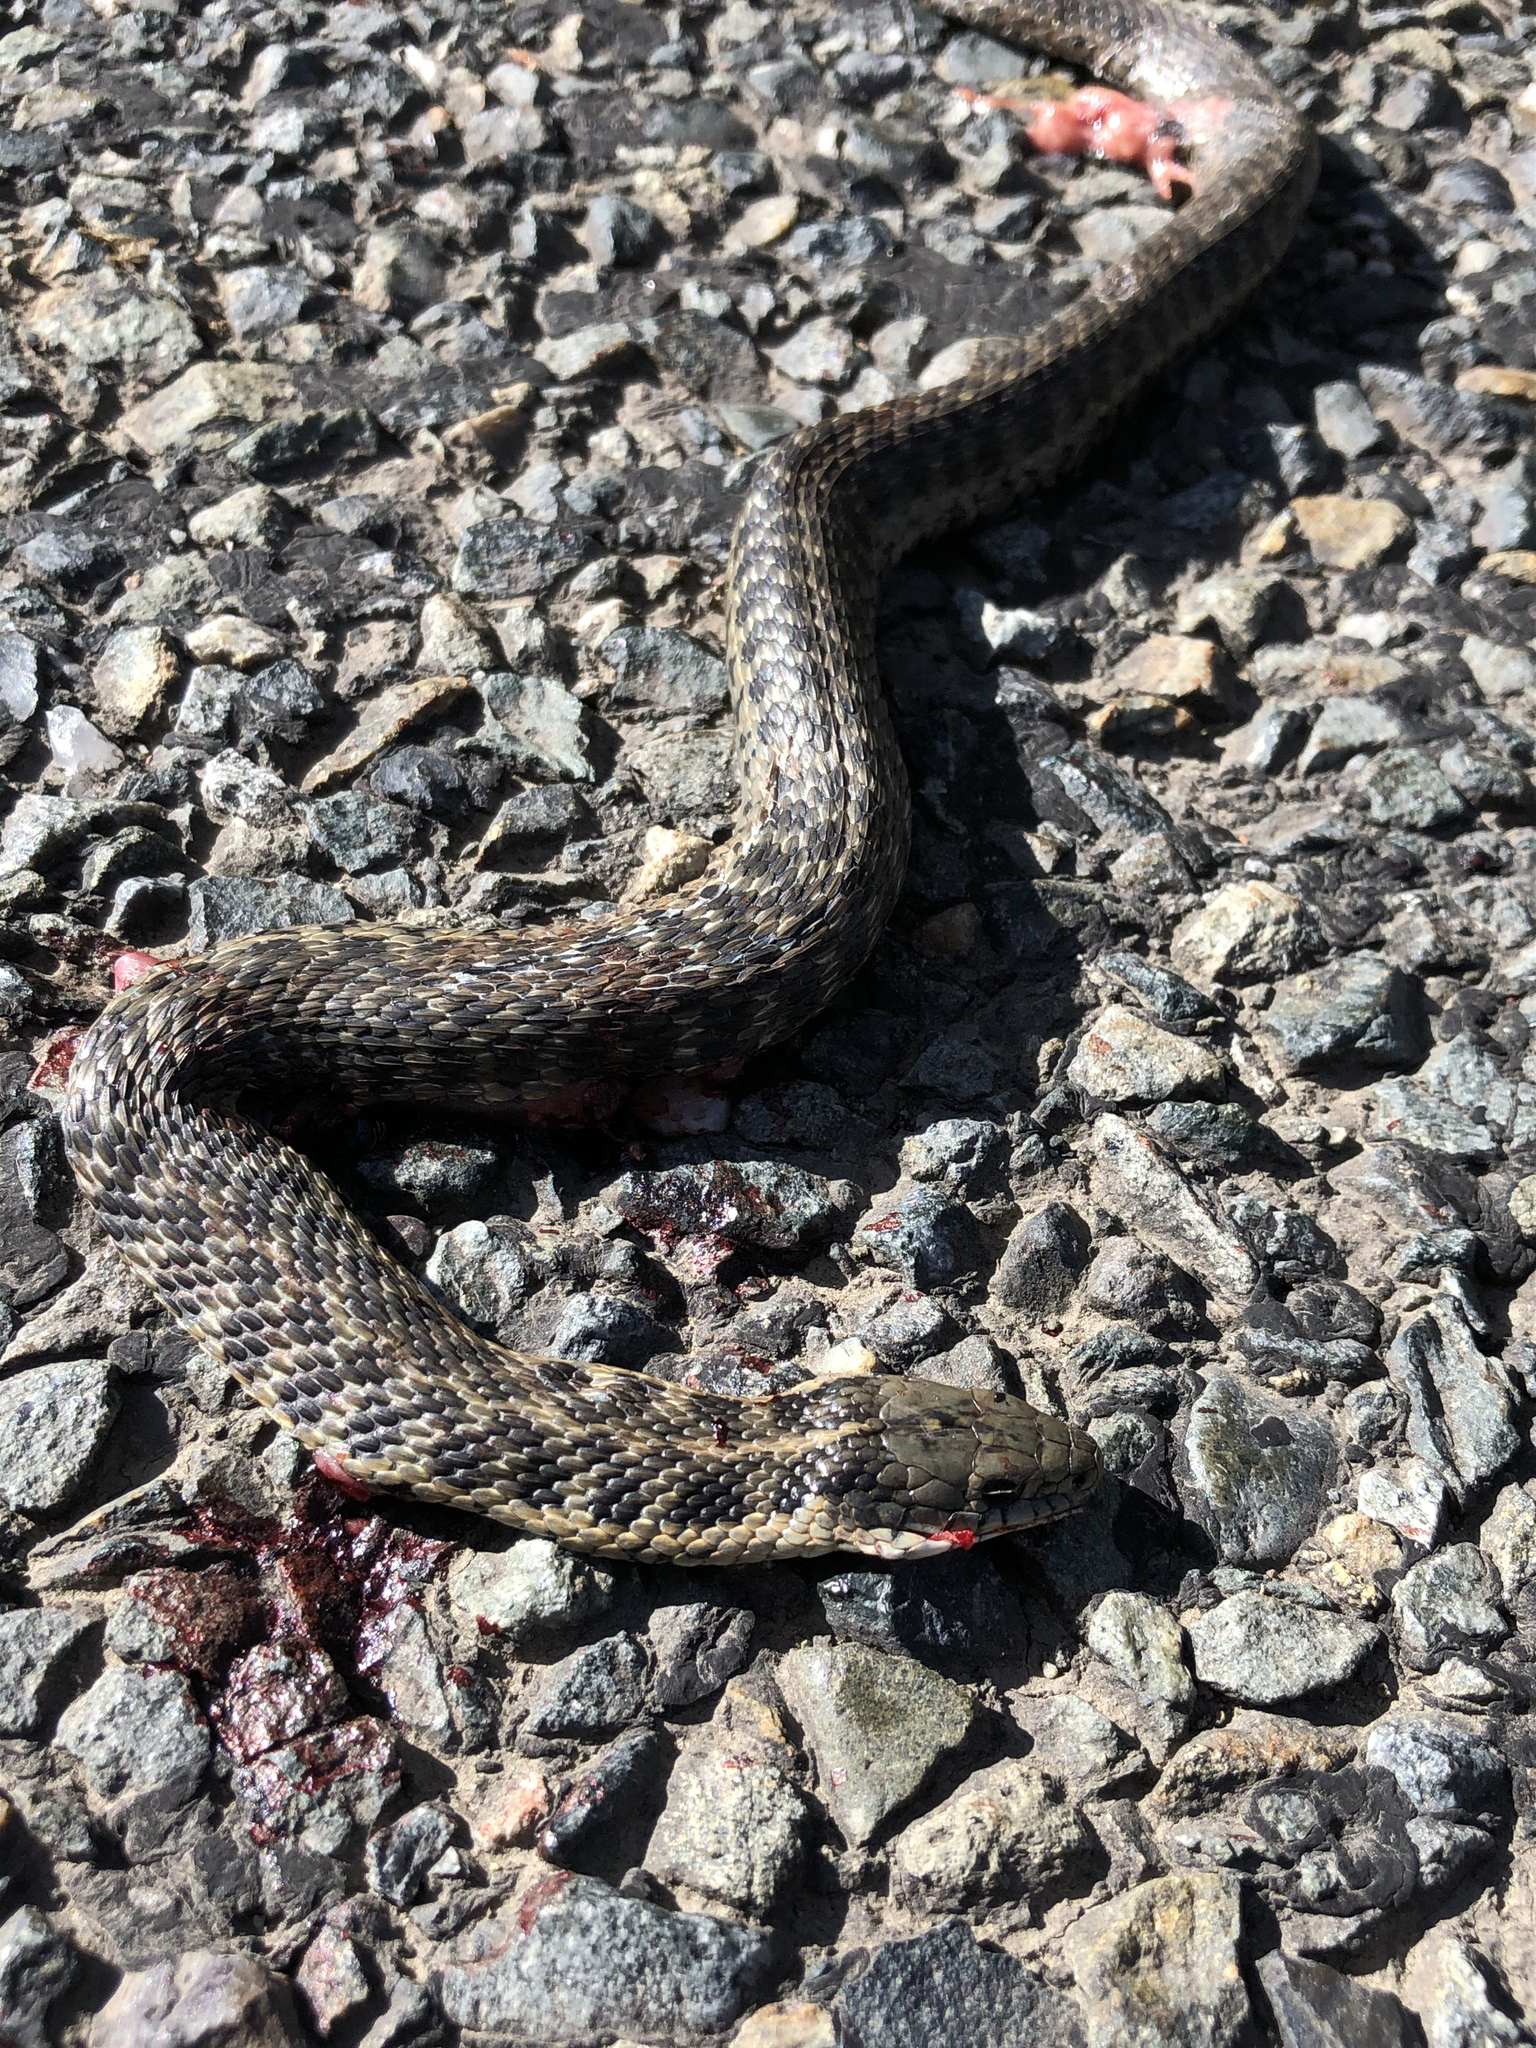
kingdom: Animalia
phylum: Chordata
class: Squamata
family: Colubridae
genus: Thamnophis
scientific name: Thamnophis atratus
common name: Pacific coast aquatic garter snake
